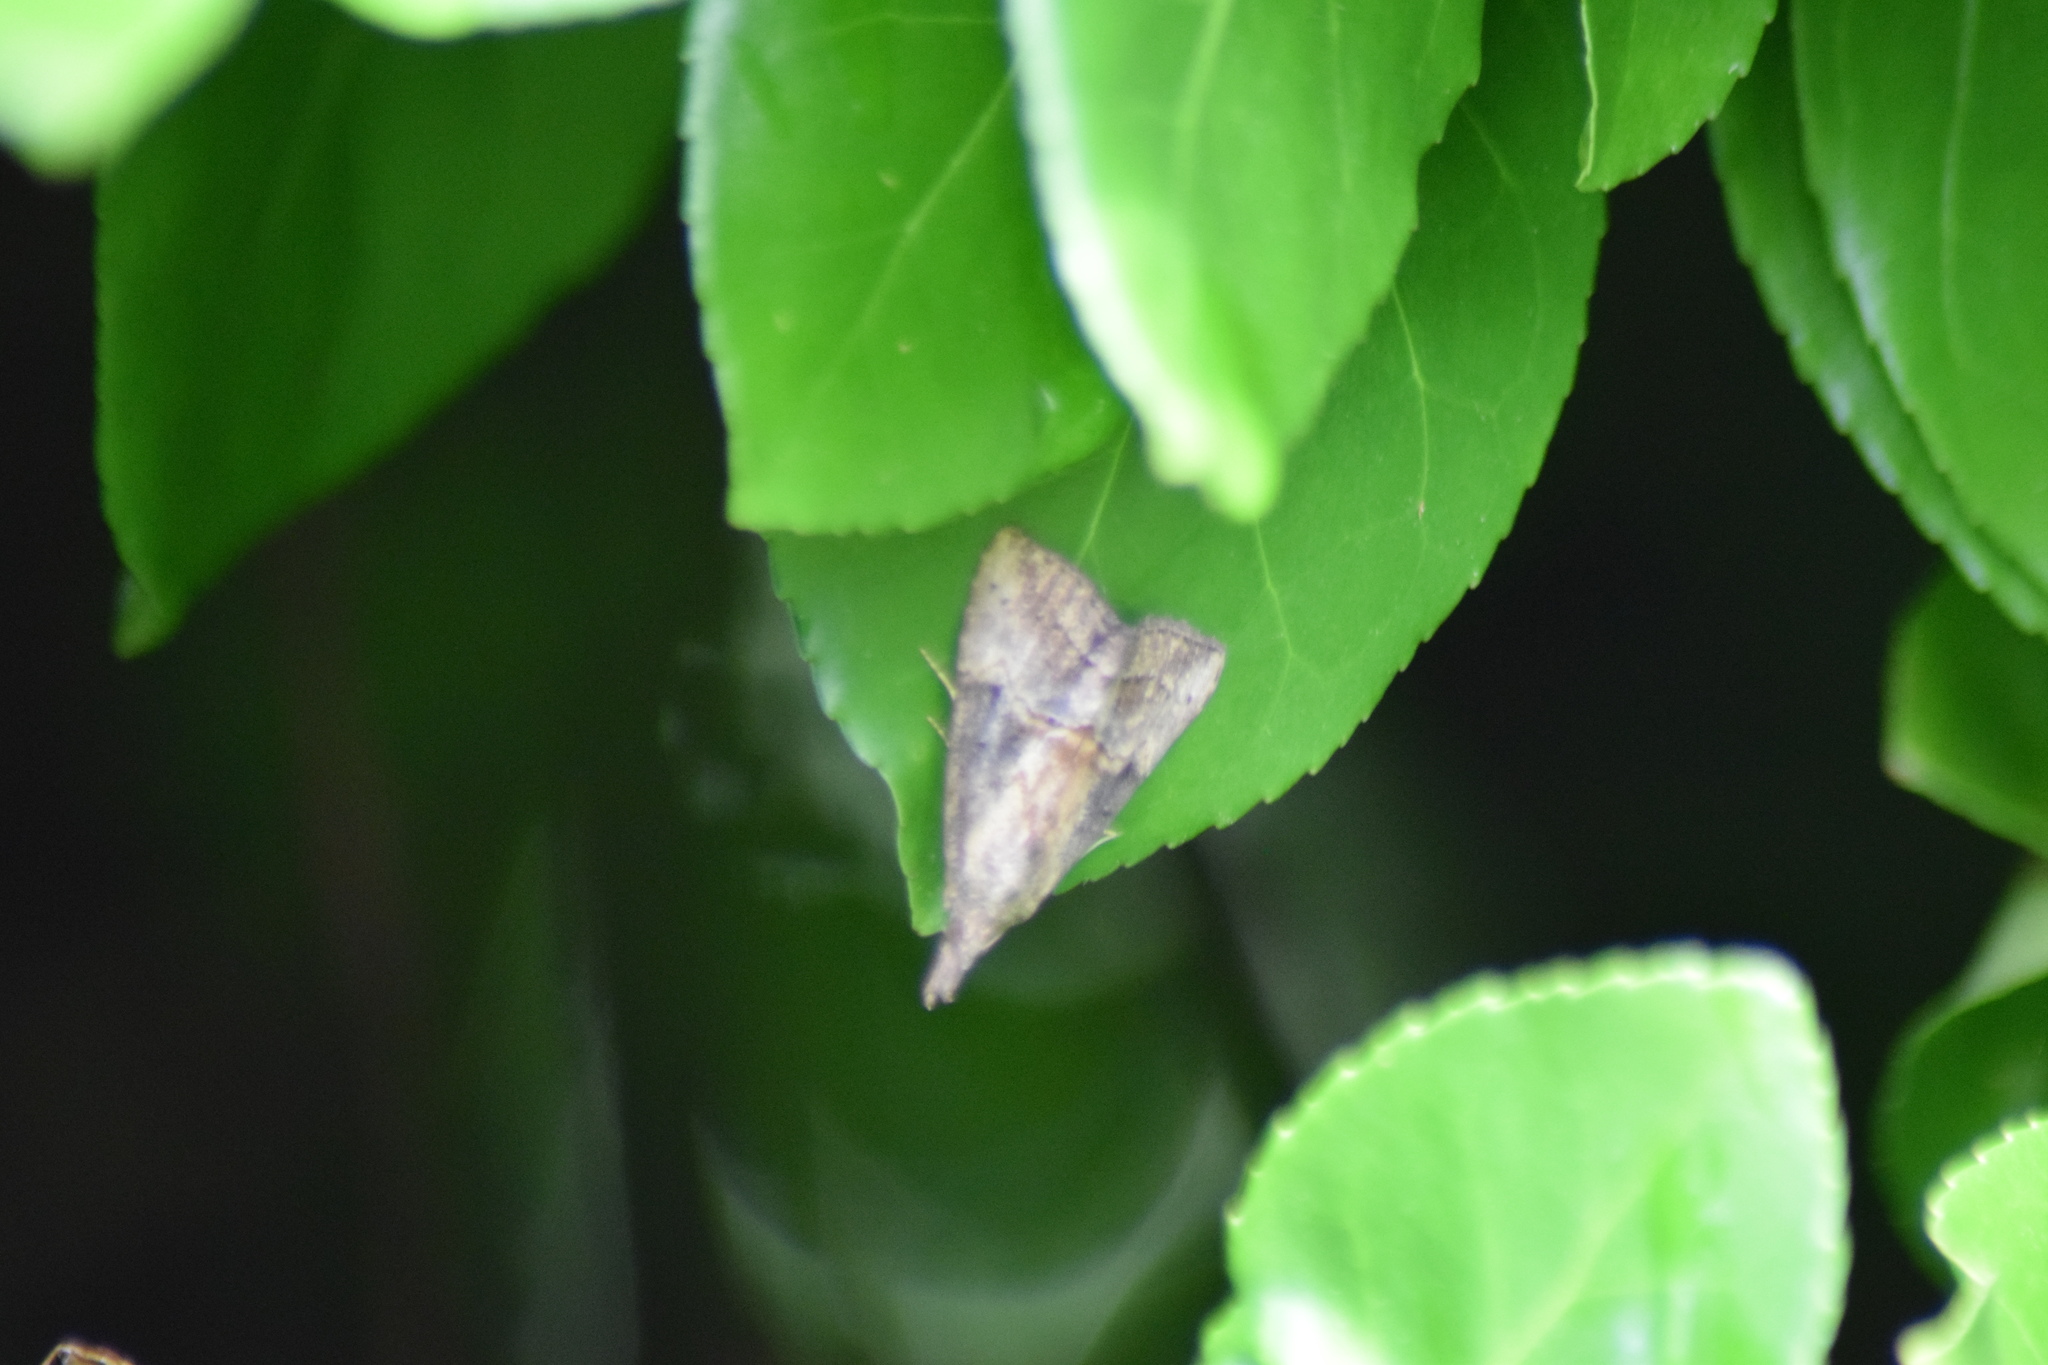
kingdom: Animalia
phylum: Arthropoda
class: Insecta
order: Lepidoptera
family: Erebidae
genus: Hypena
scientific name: Hypena scabra
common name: Green cloverworm
